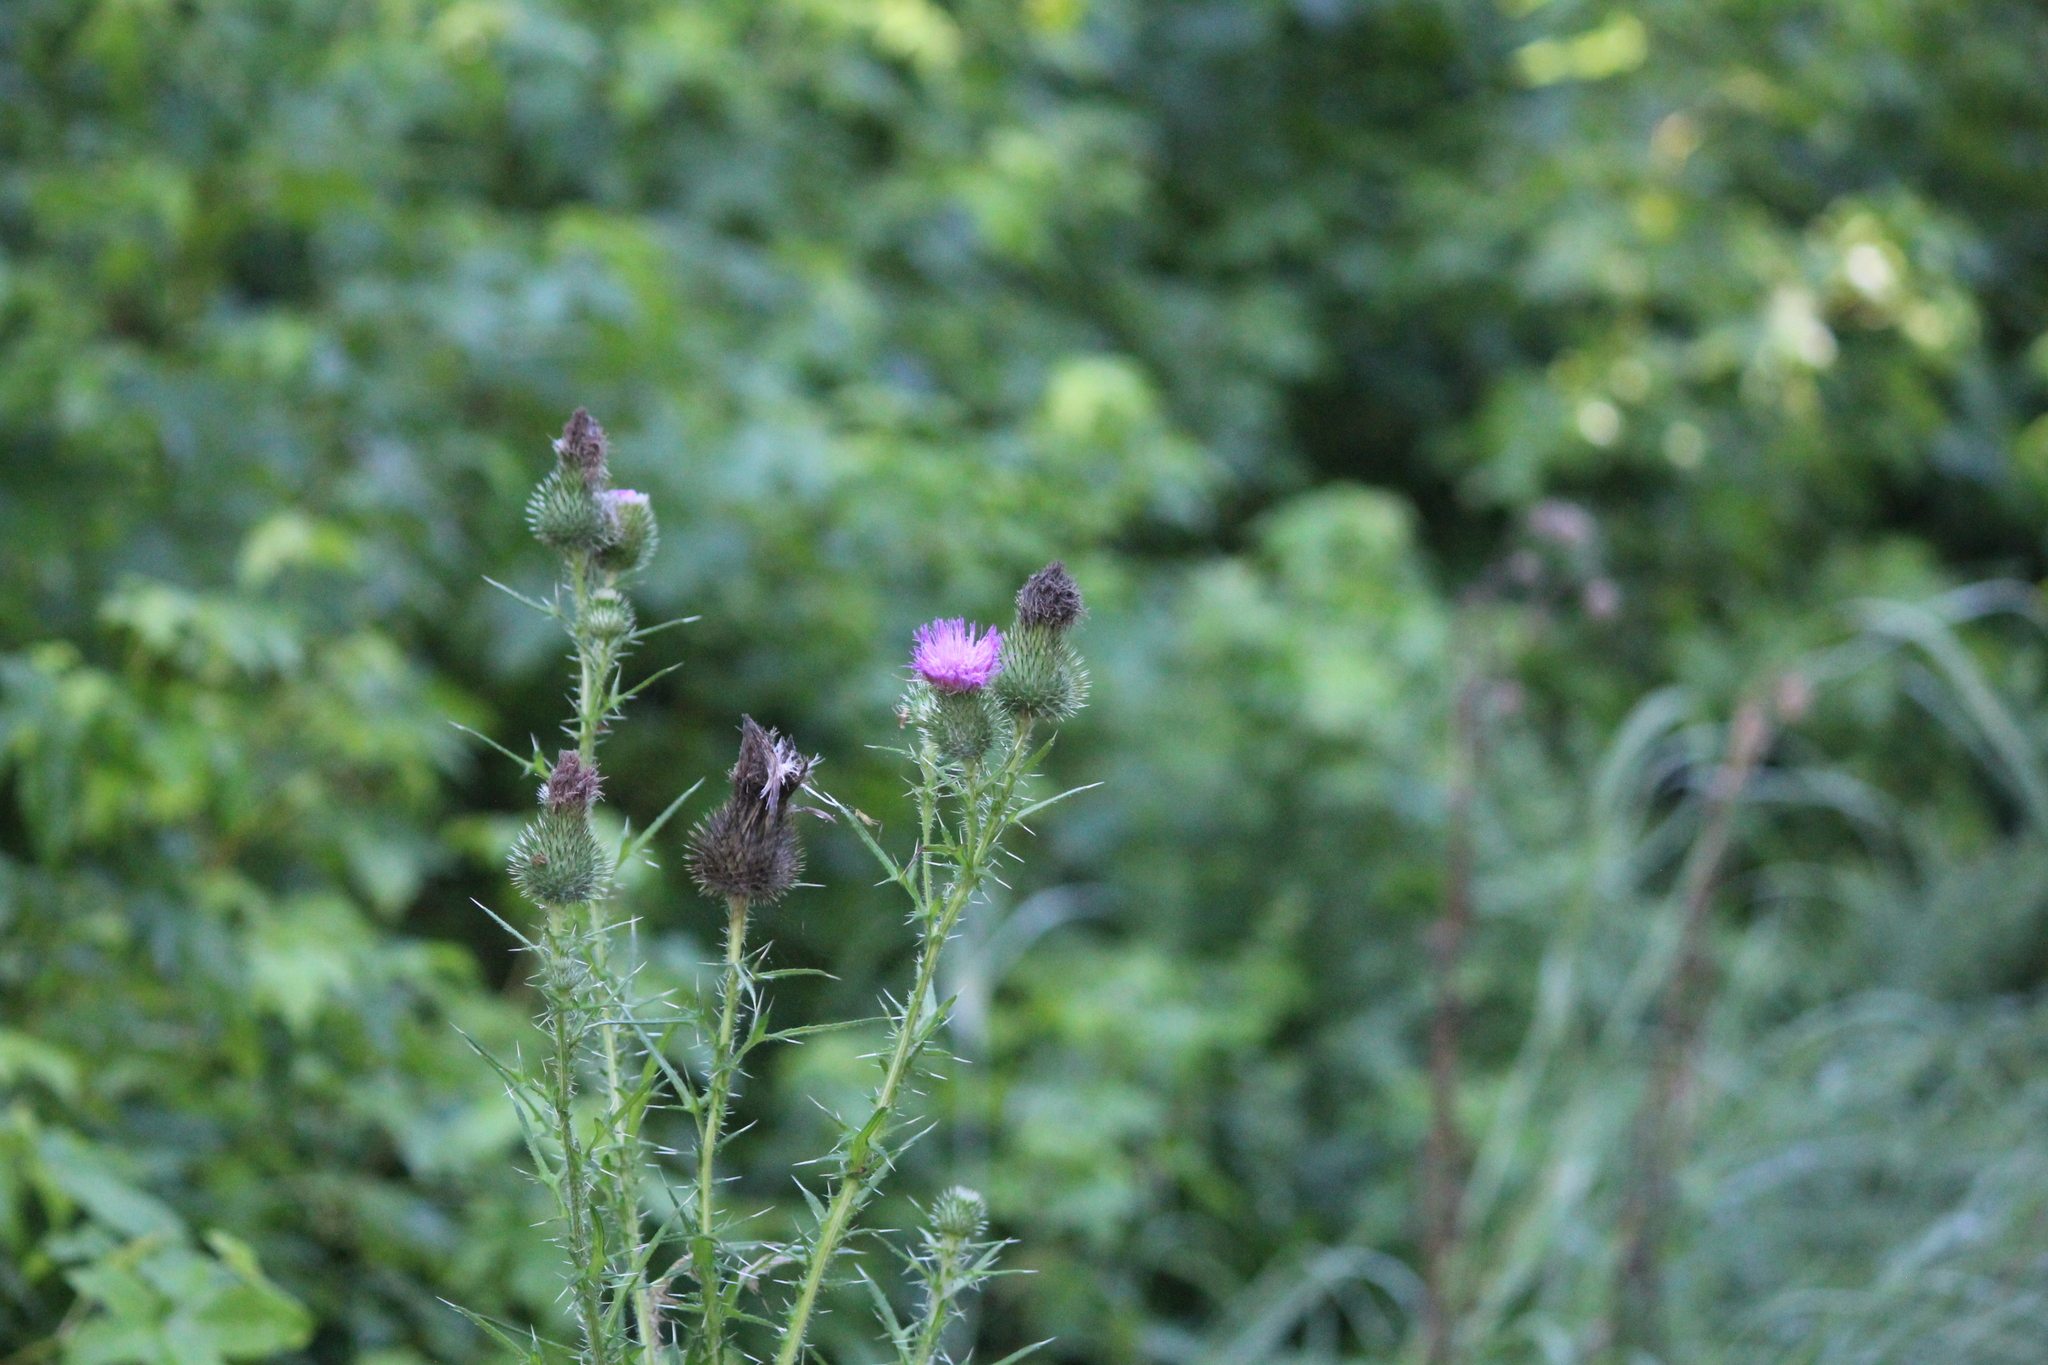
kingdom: Plantae
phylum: Tracheophyta
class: Magnoliopsida
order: Asterales
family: Asteraceae
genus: Cirsium
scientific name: Cirsium vulgare
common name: Bull thistle
